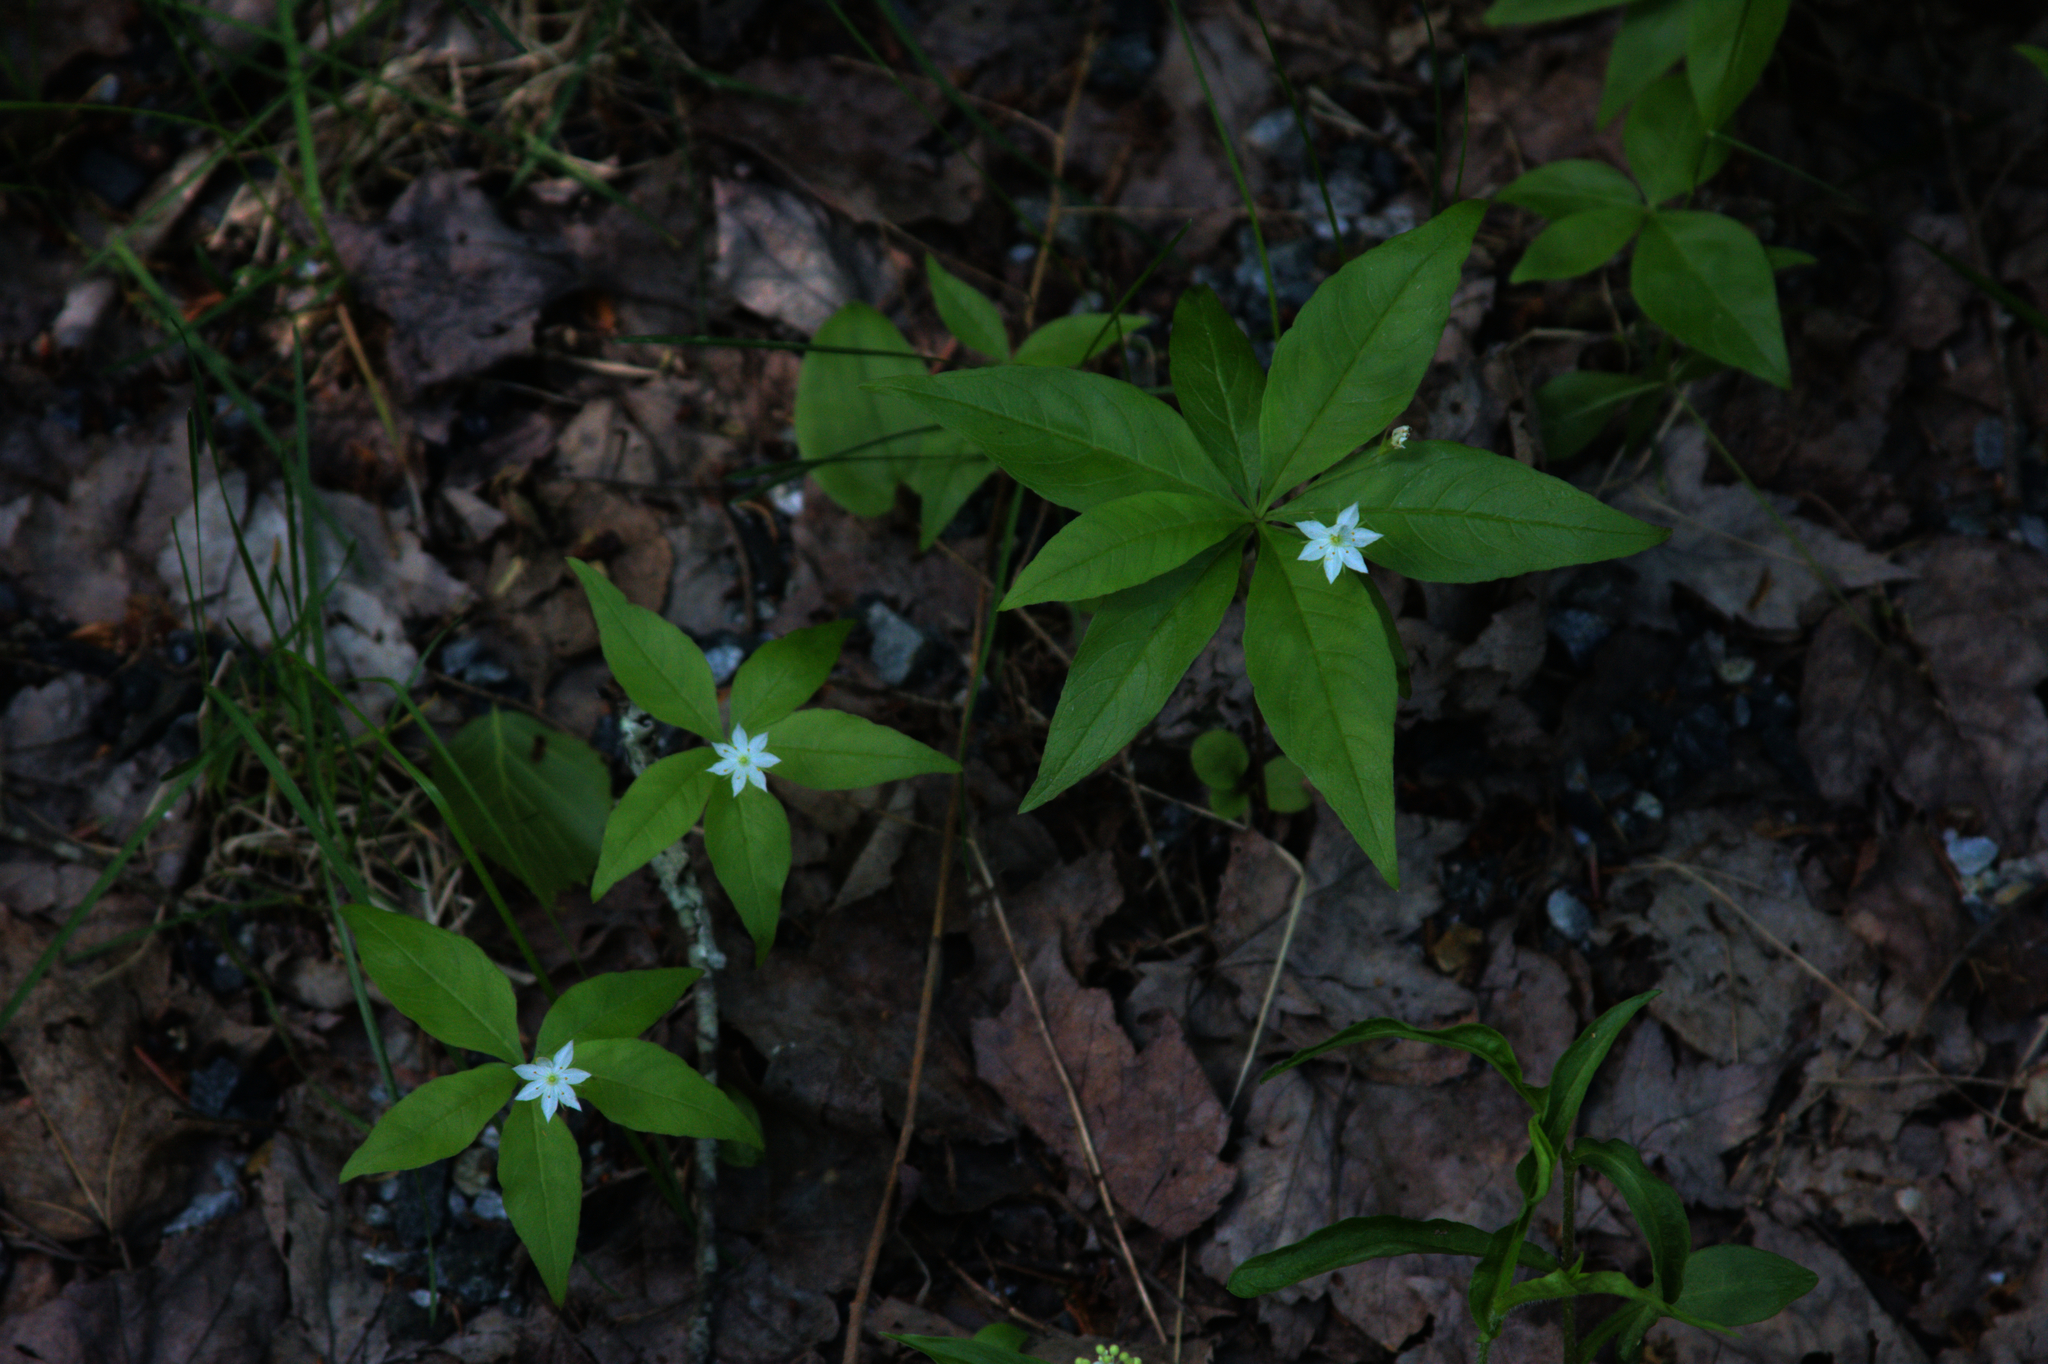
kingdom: Plantae
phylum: Tracheophyta
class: Magnoliopsida
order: Ericales
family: Primulaceae
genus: Lysimachia
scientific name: Lysimachia borealis
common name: American starflower
